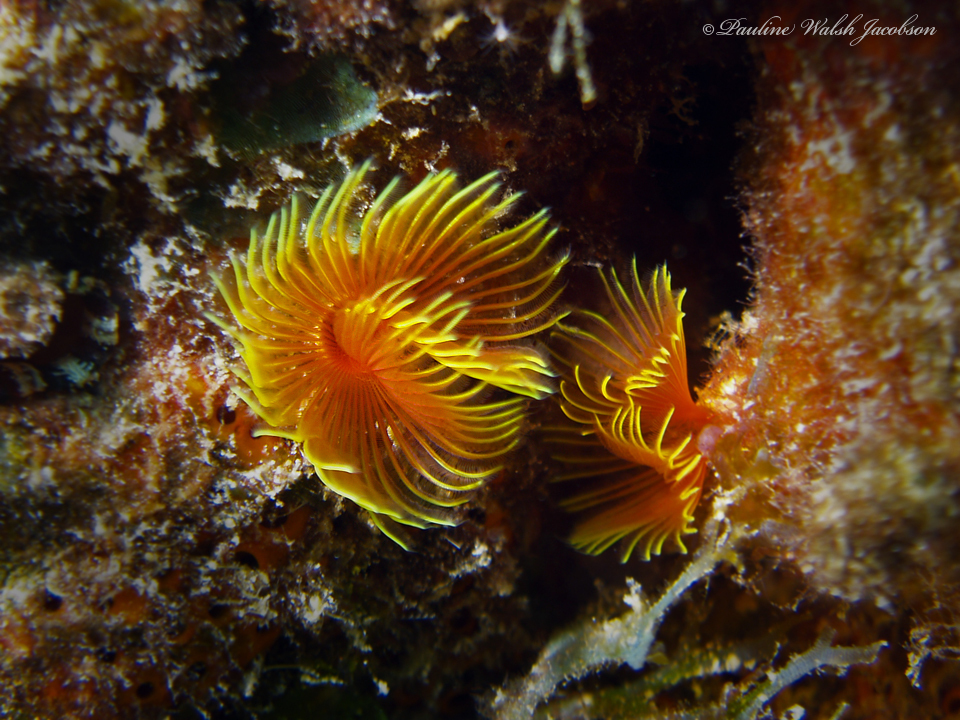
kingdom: Animalia
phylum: Annelida
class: Polychaeta
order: Sabellida
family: Serpulidae
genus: Pomatostegus
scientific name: Pomatostegus stellatus
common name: Star tubeworm
